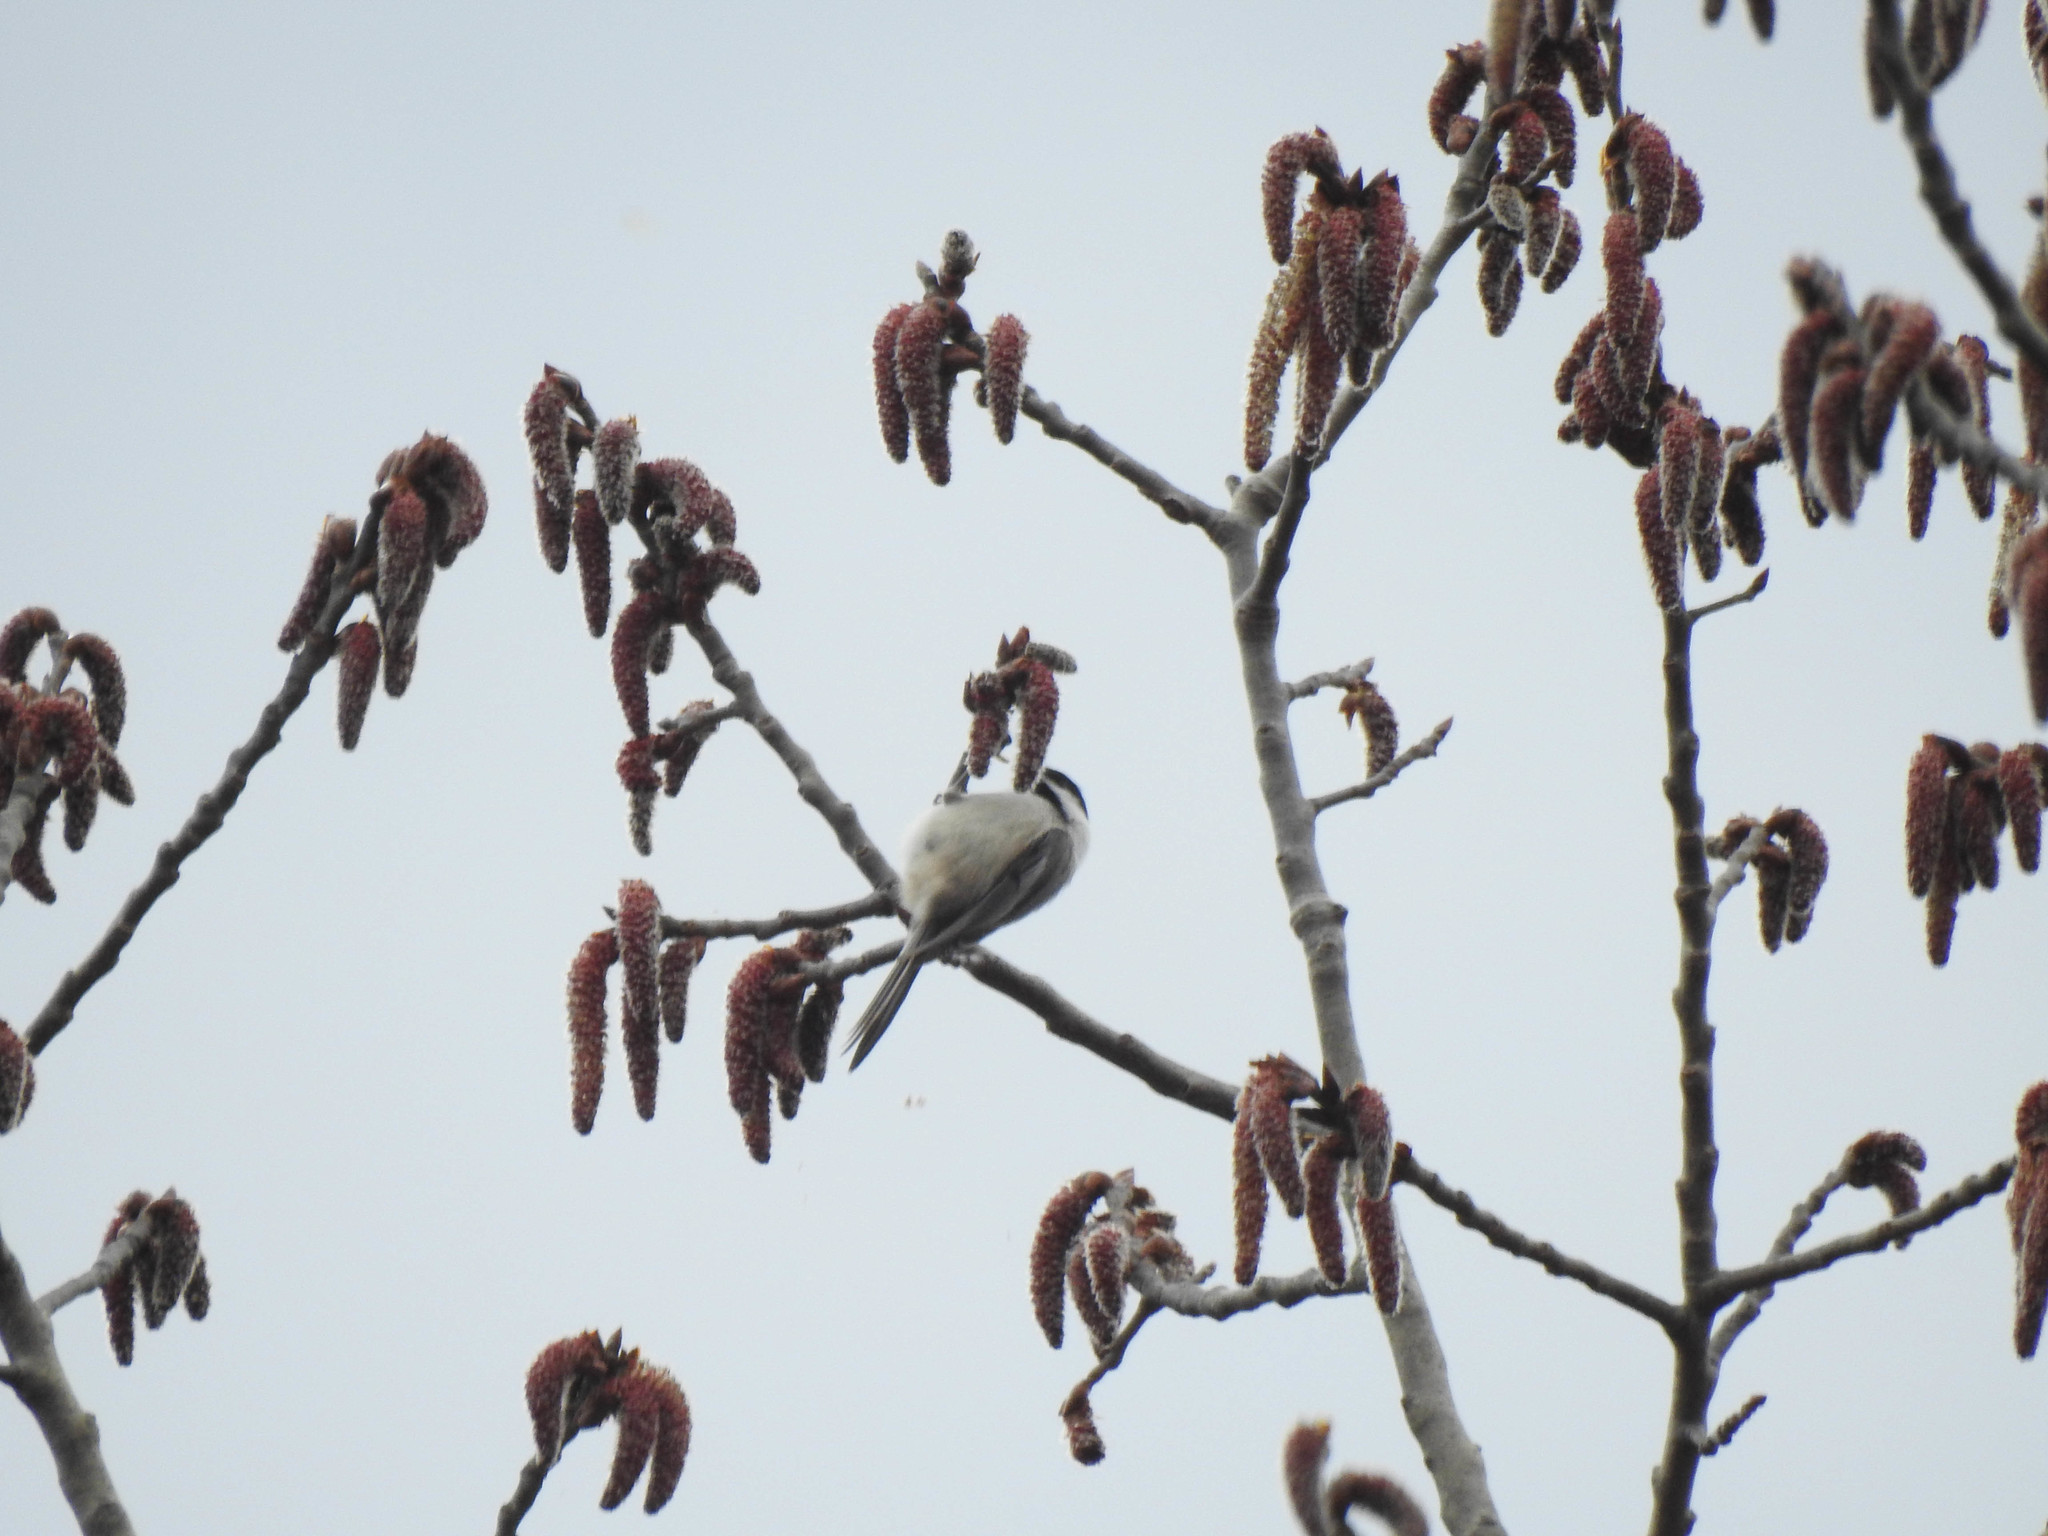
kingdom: Animalia
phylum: Chordata
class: Aves
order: Passeriformes
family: Paridae
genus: Poecile
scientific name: Poecile atricapillus
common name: Black-capped chickadee
